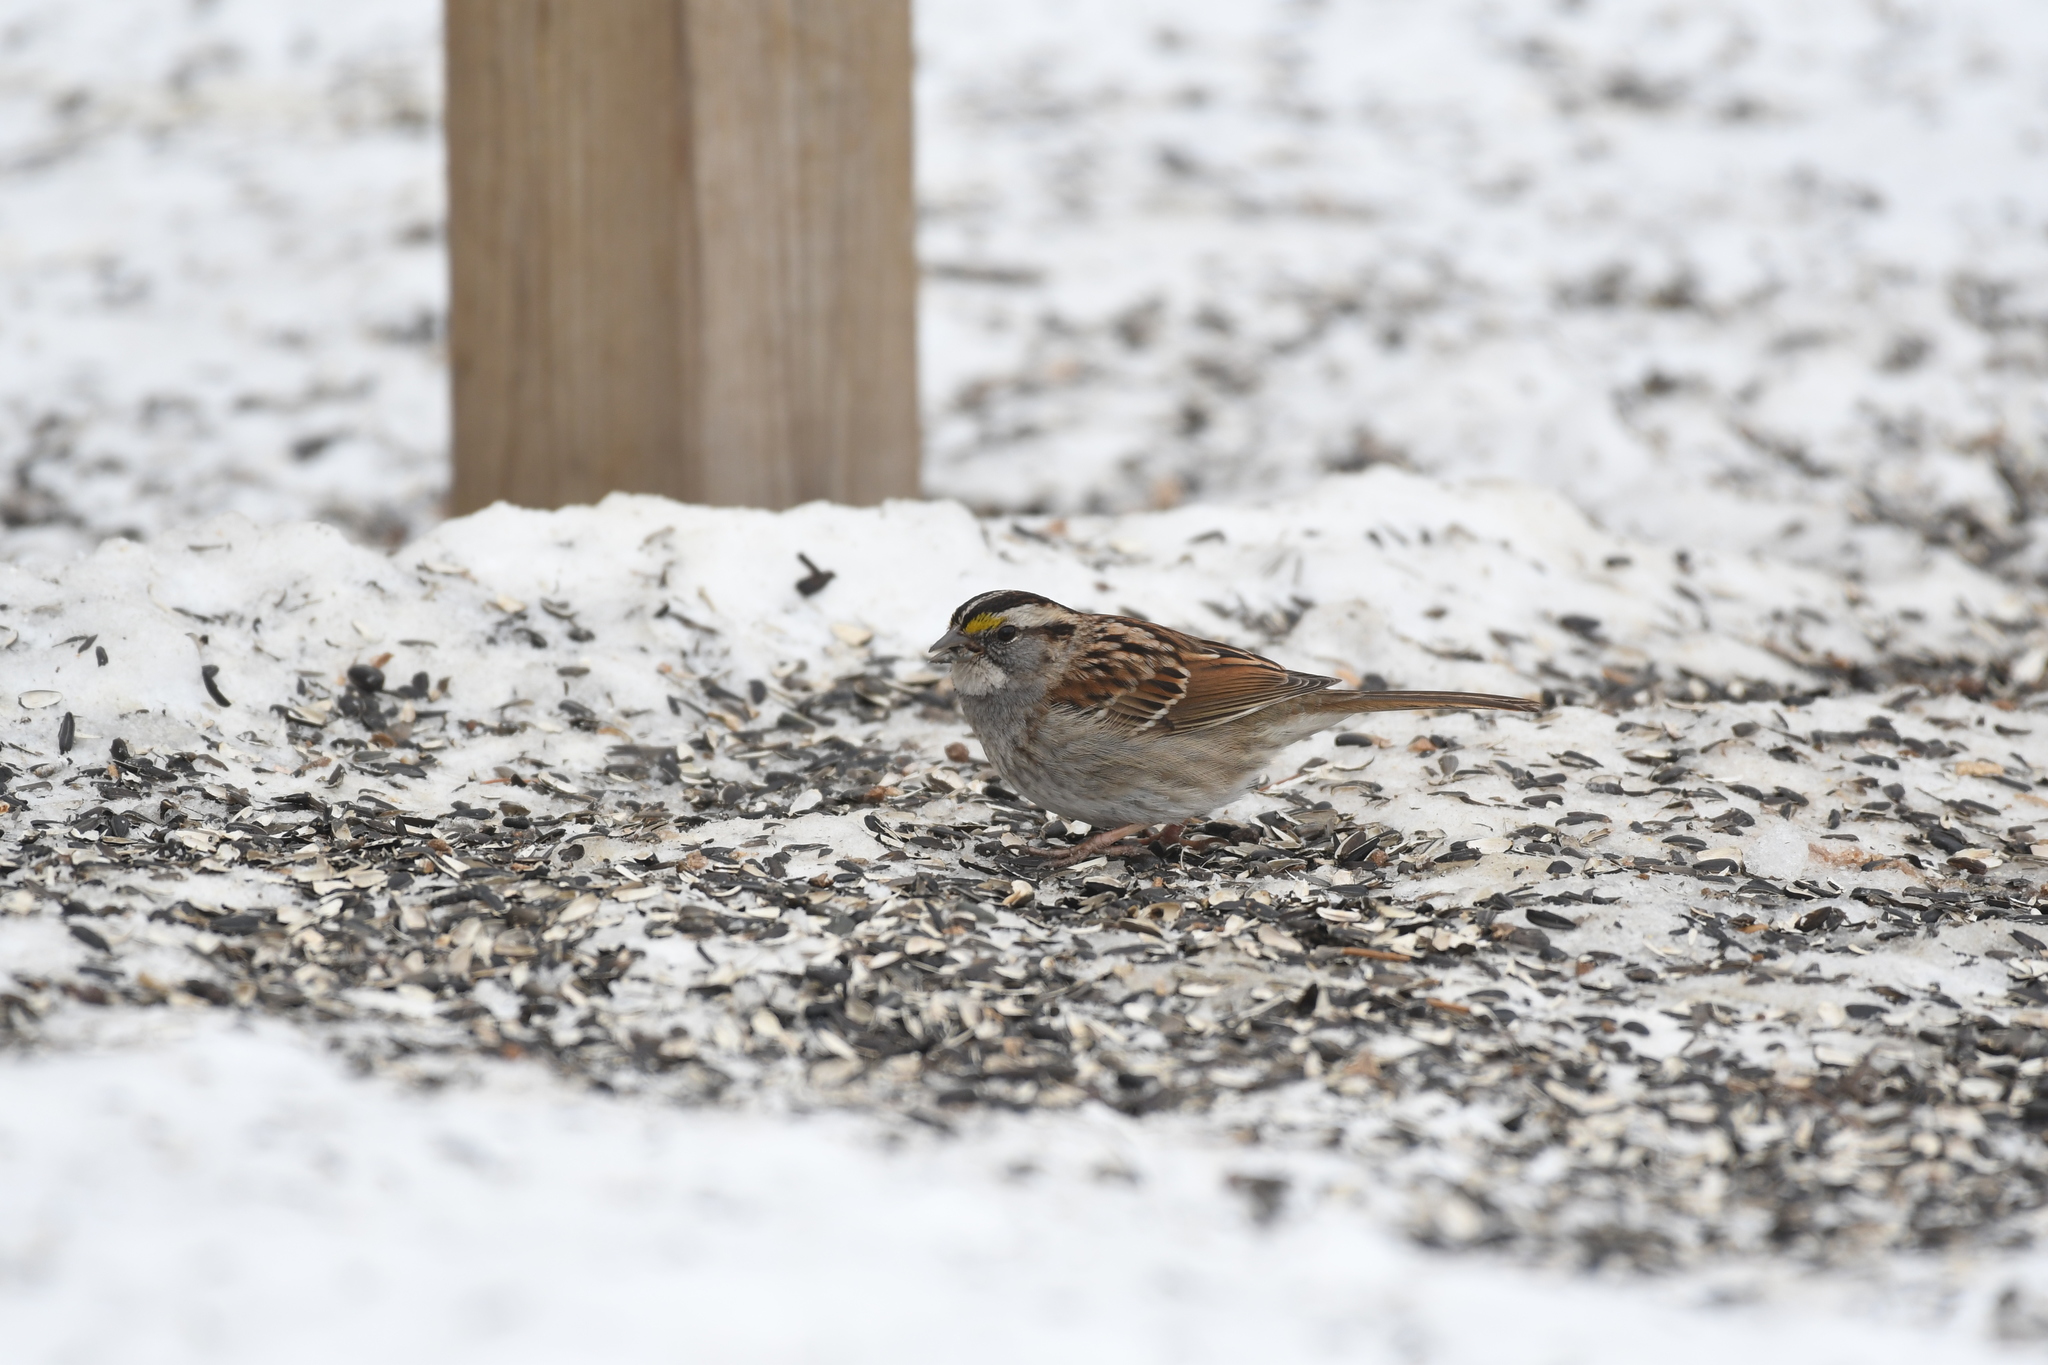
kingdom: Animalia
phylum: Chordata
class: Aves
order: Passeriformes
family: Passerellidae
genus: Zonotrichia
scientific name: Zonotrichia albicollis
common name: White-throated sparrow
